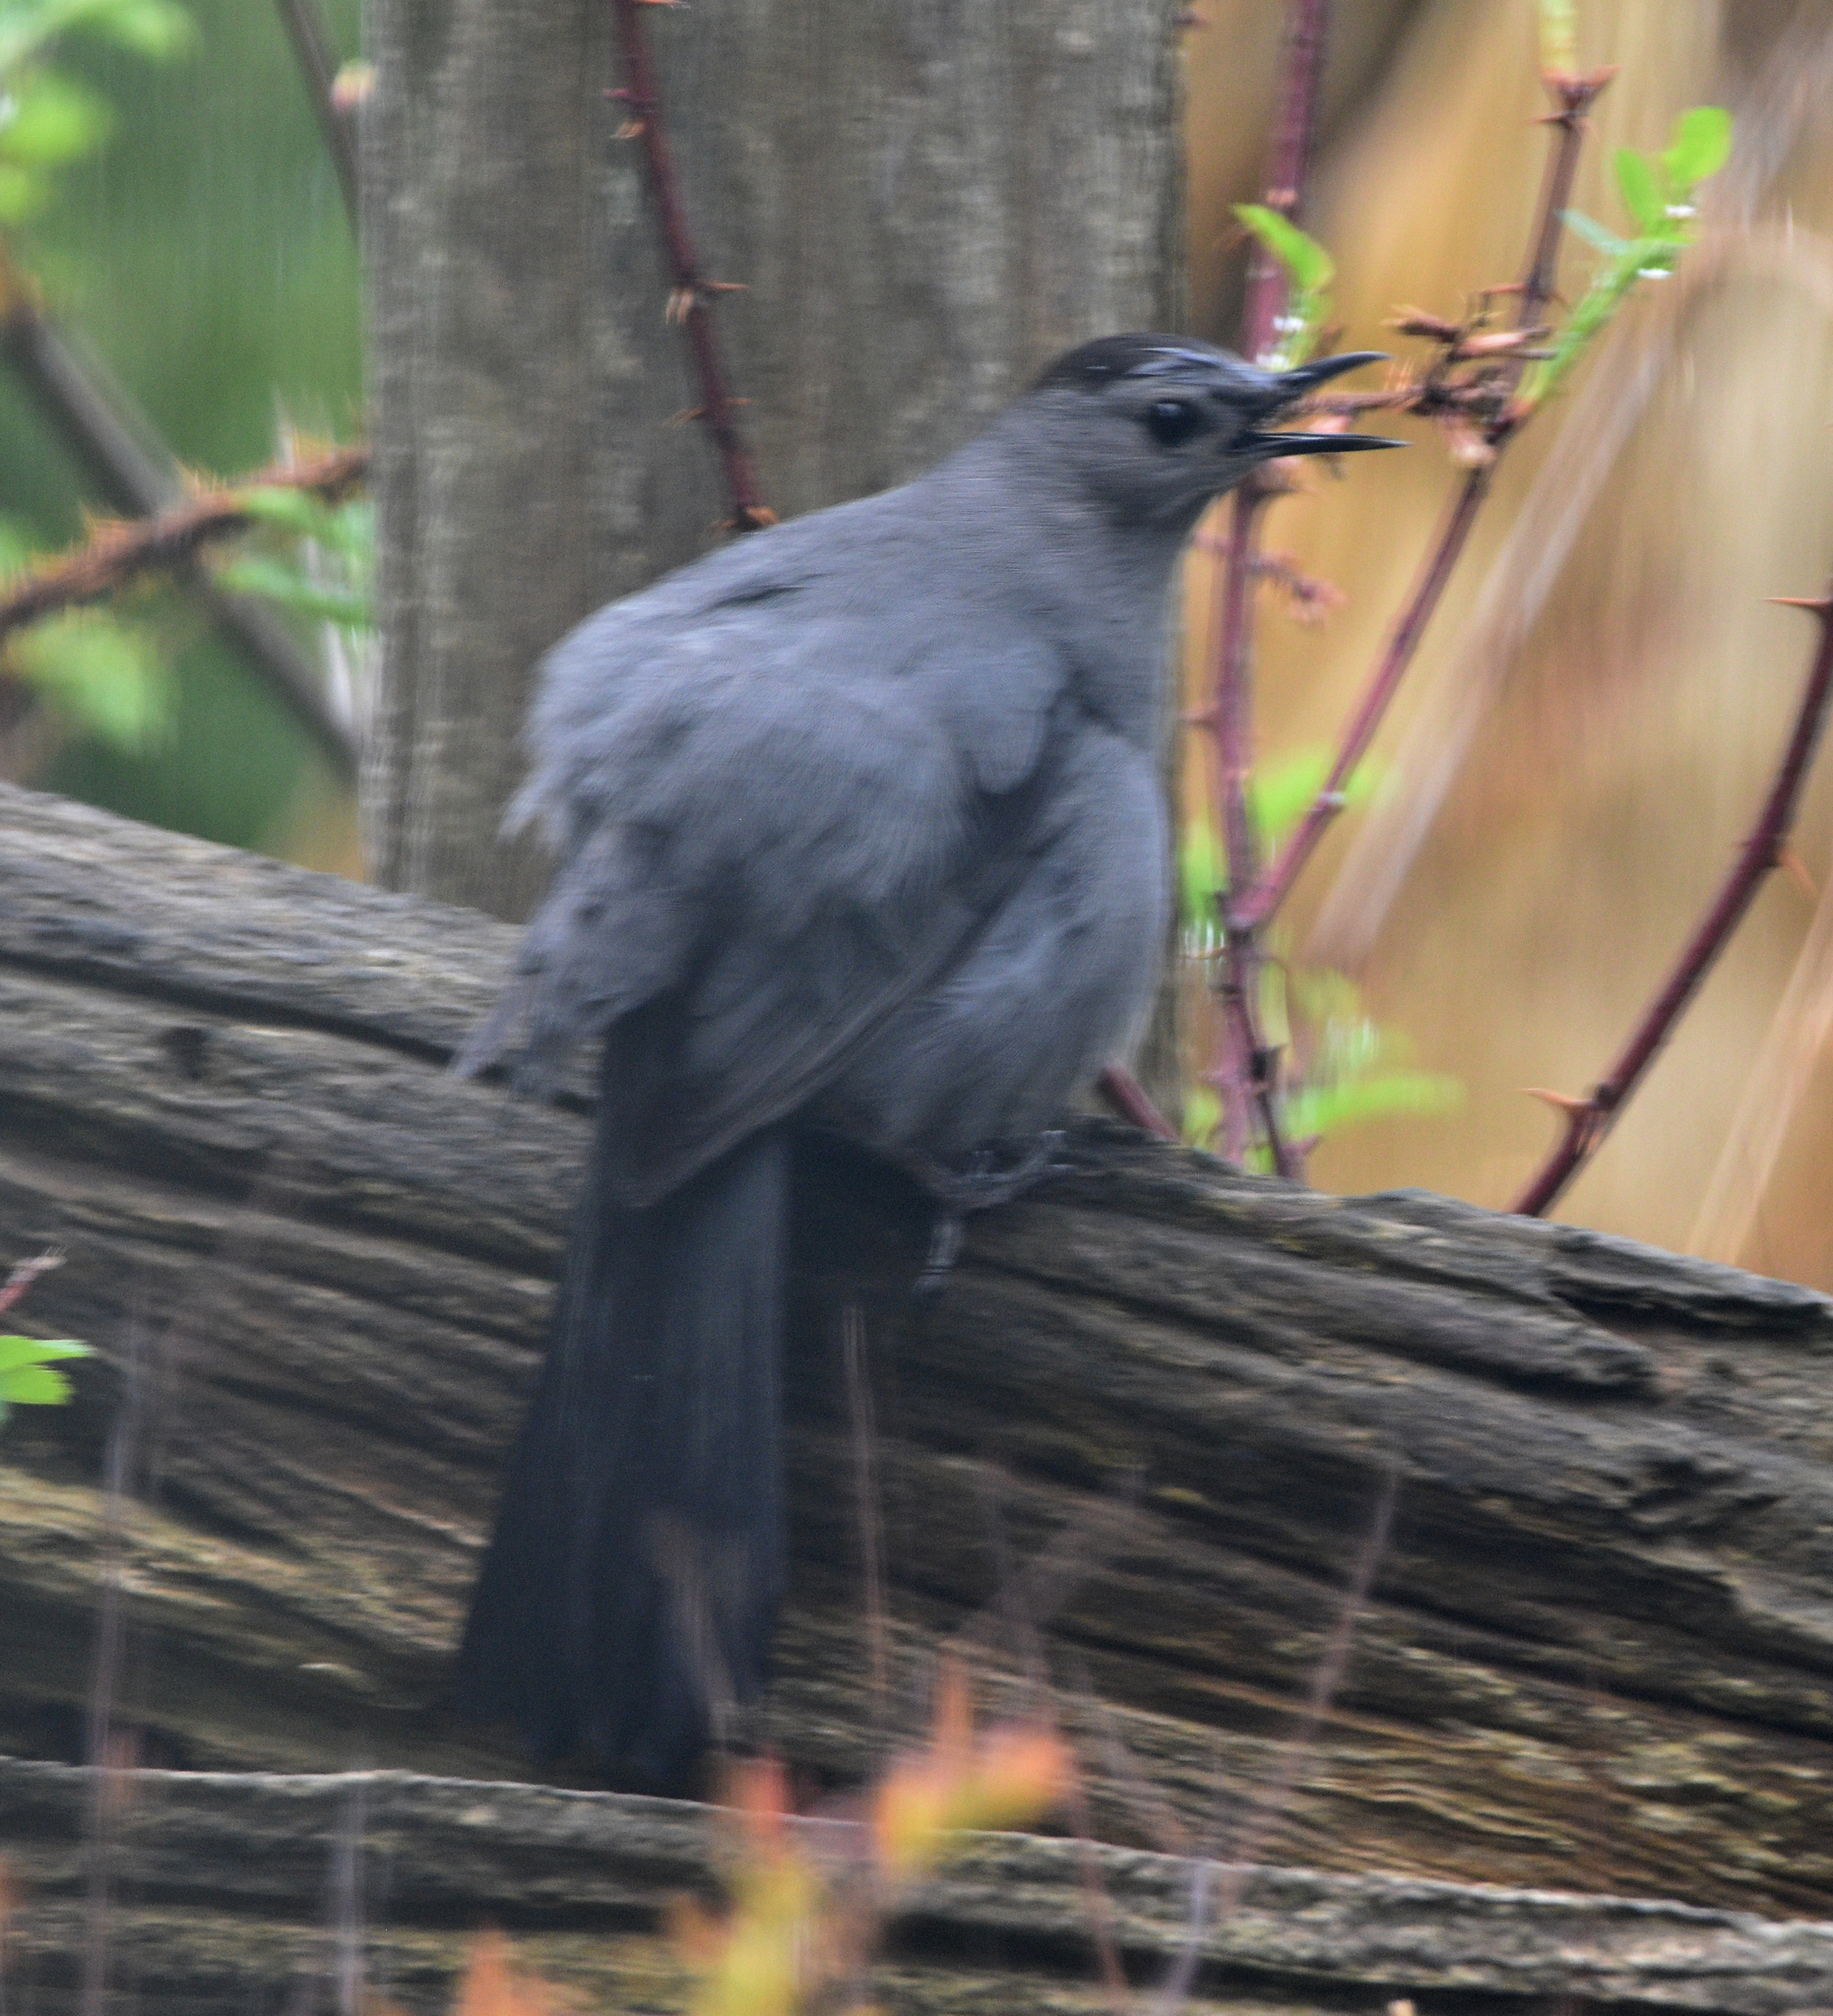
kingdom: Animalia
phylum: Chordata
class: Aves
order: Passeriformes
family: Mimidae
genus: Dumetella
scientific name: Dumetella carolinensis
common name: Gray catbird
